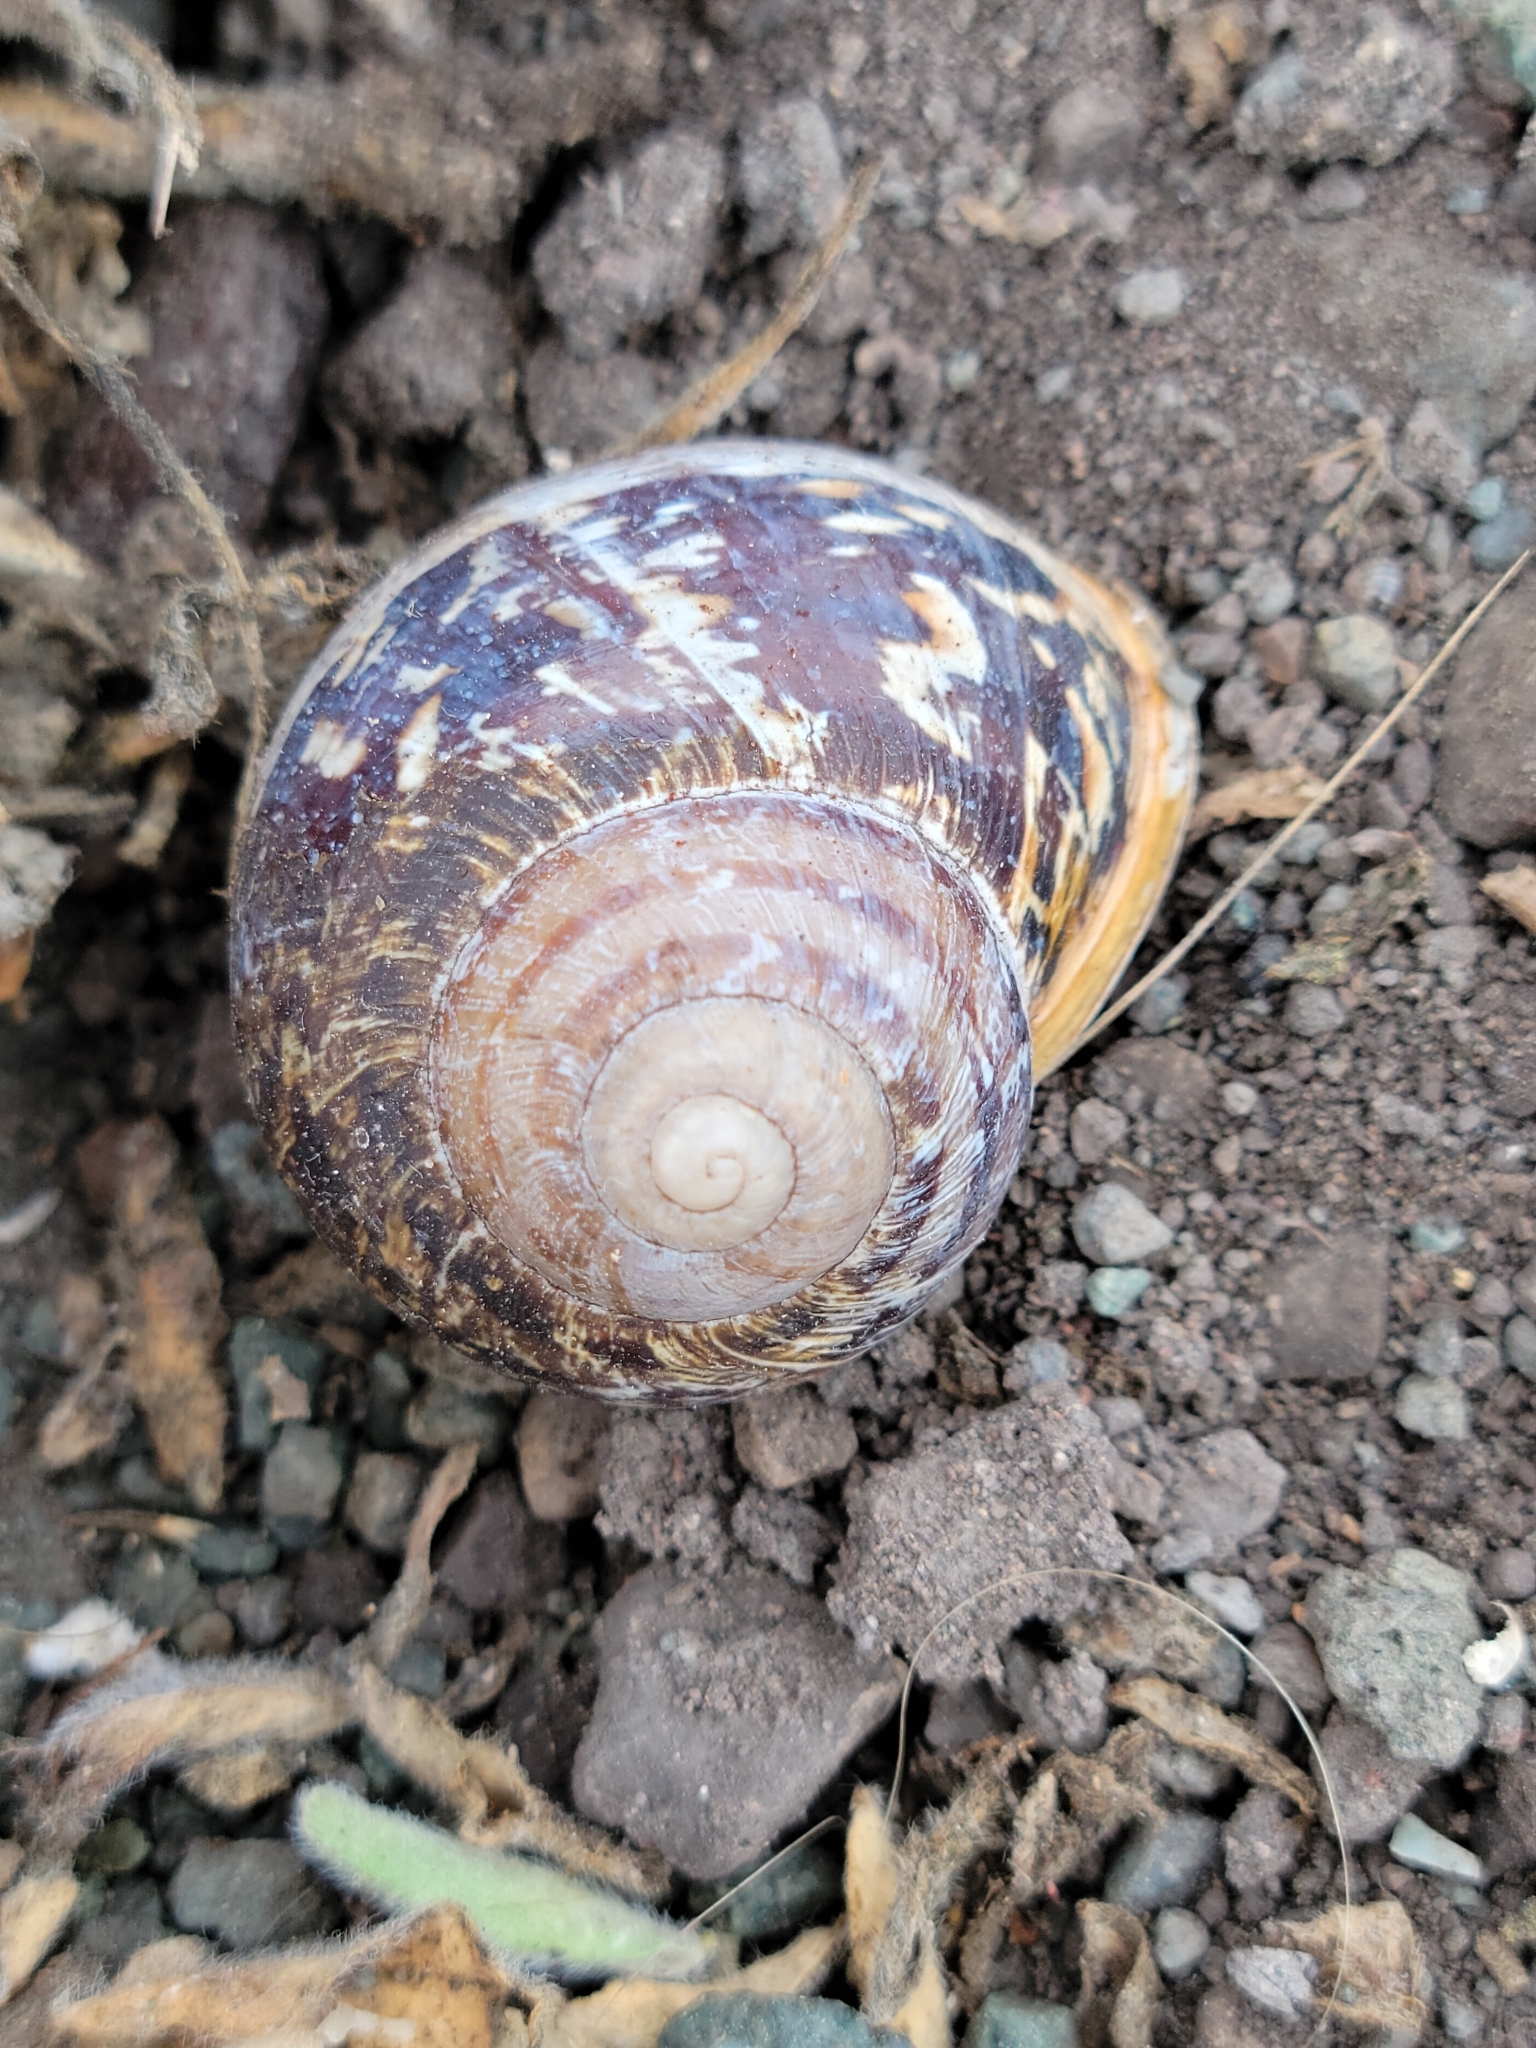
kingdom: Animalia
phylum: Mollusca
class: Gastropoda
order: Stylommatophora
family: Helicidae
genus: Cornu
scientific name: Cornu aspersum
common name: Brown garden snail
